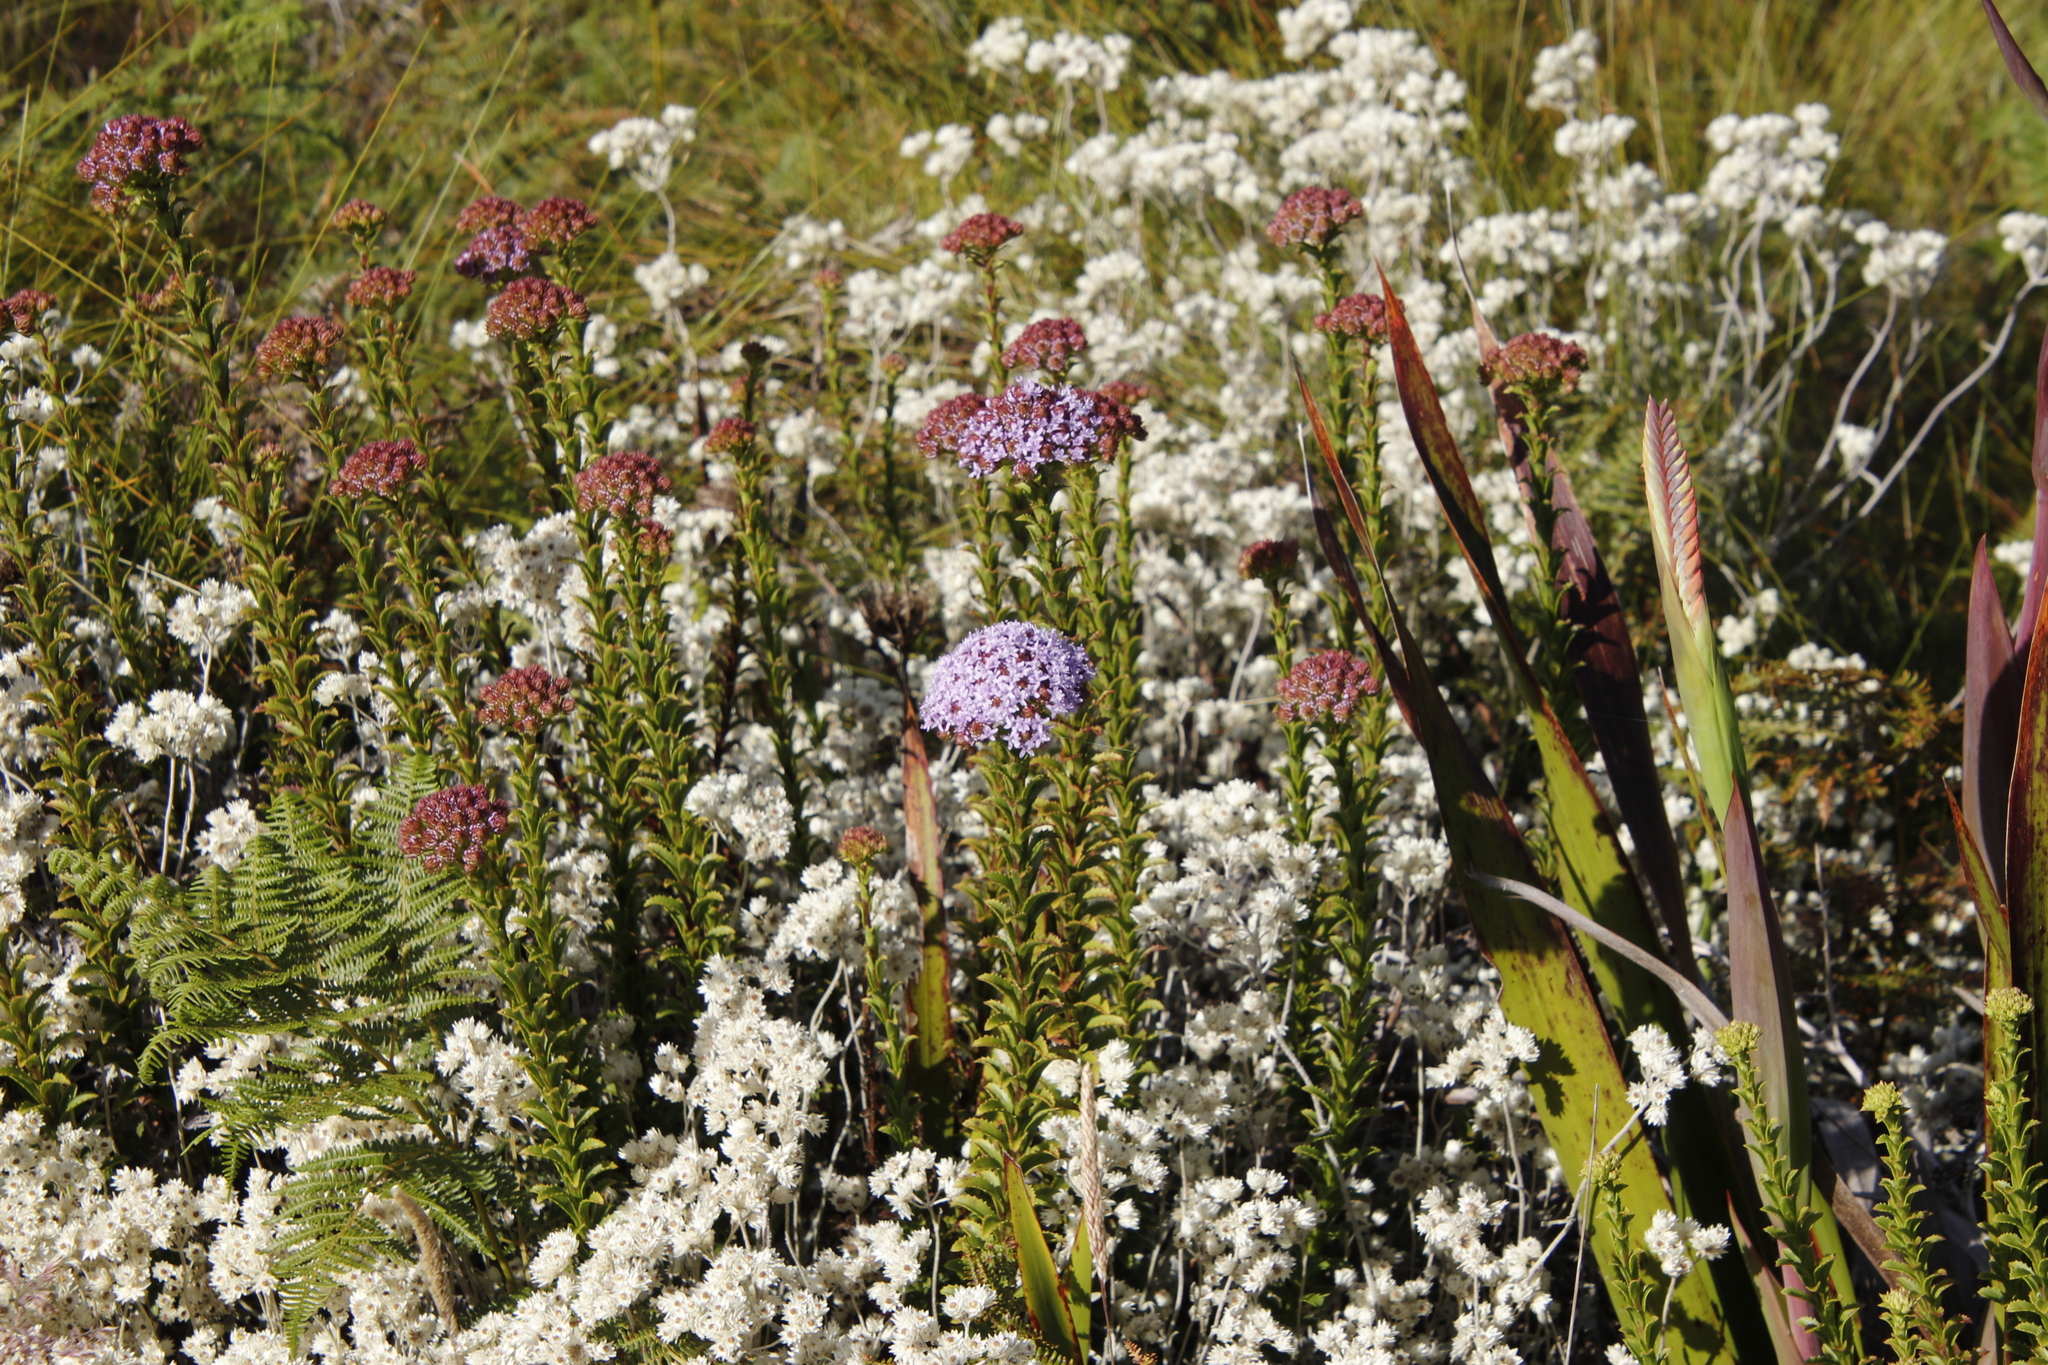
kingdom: Plantae
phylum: Tracheophyta
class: Magnoliopsida
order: Lamiales
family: Scrophulariaceae
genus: Pseudoselago
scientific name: Pseudoselago serrata
